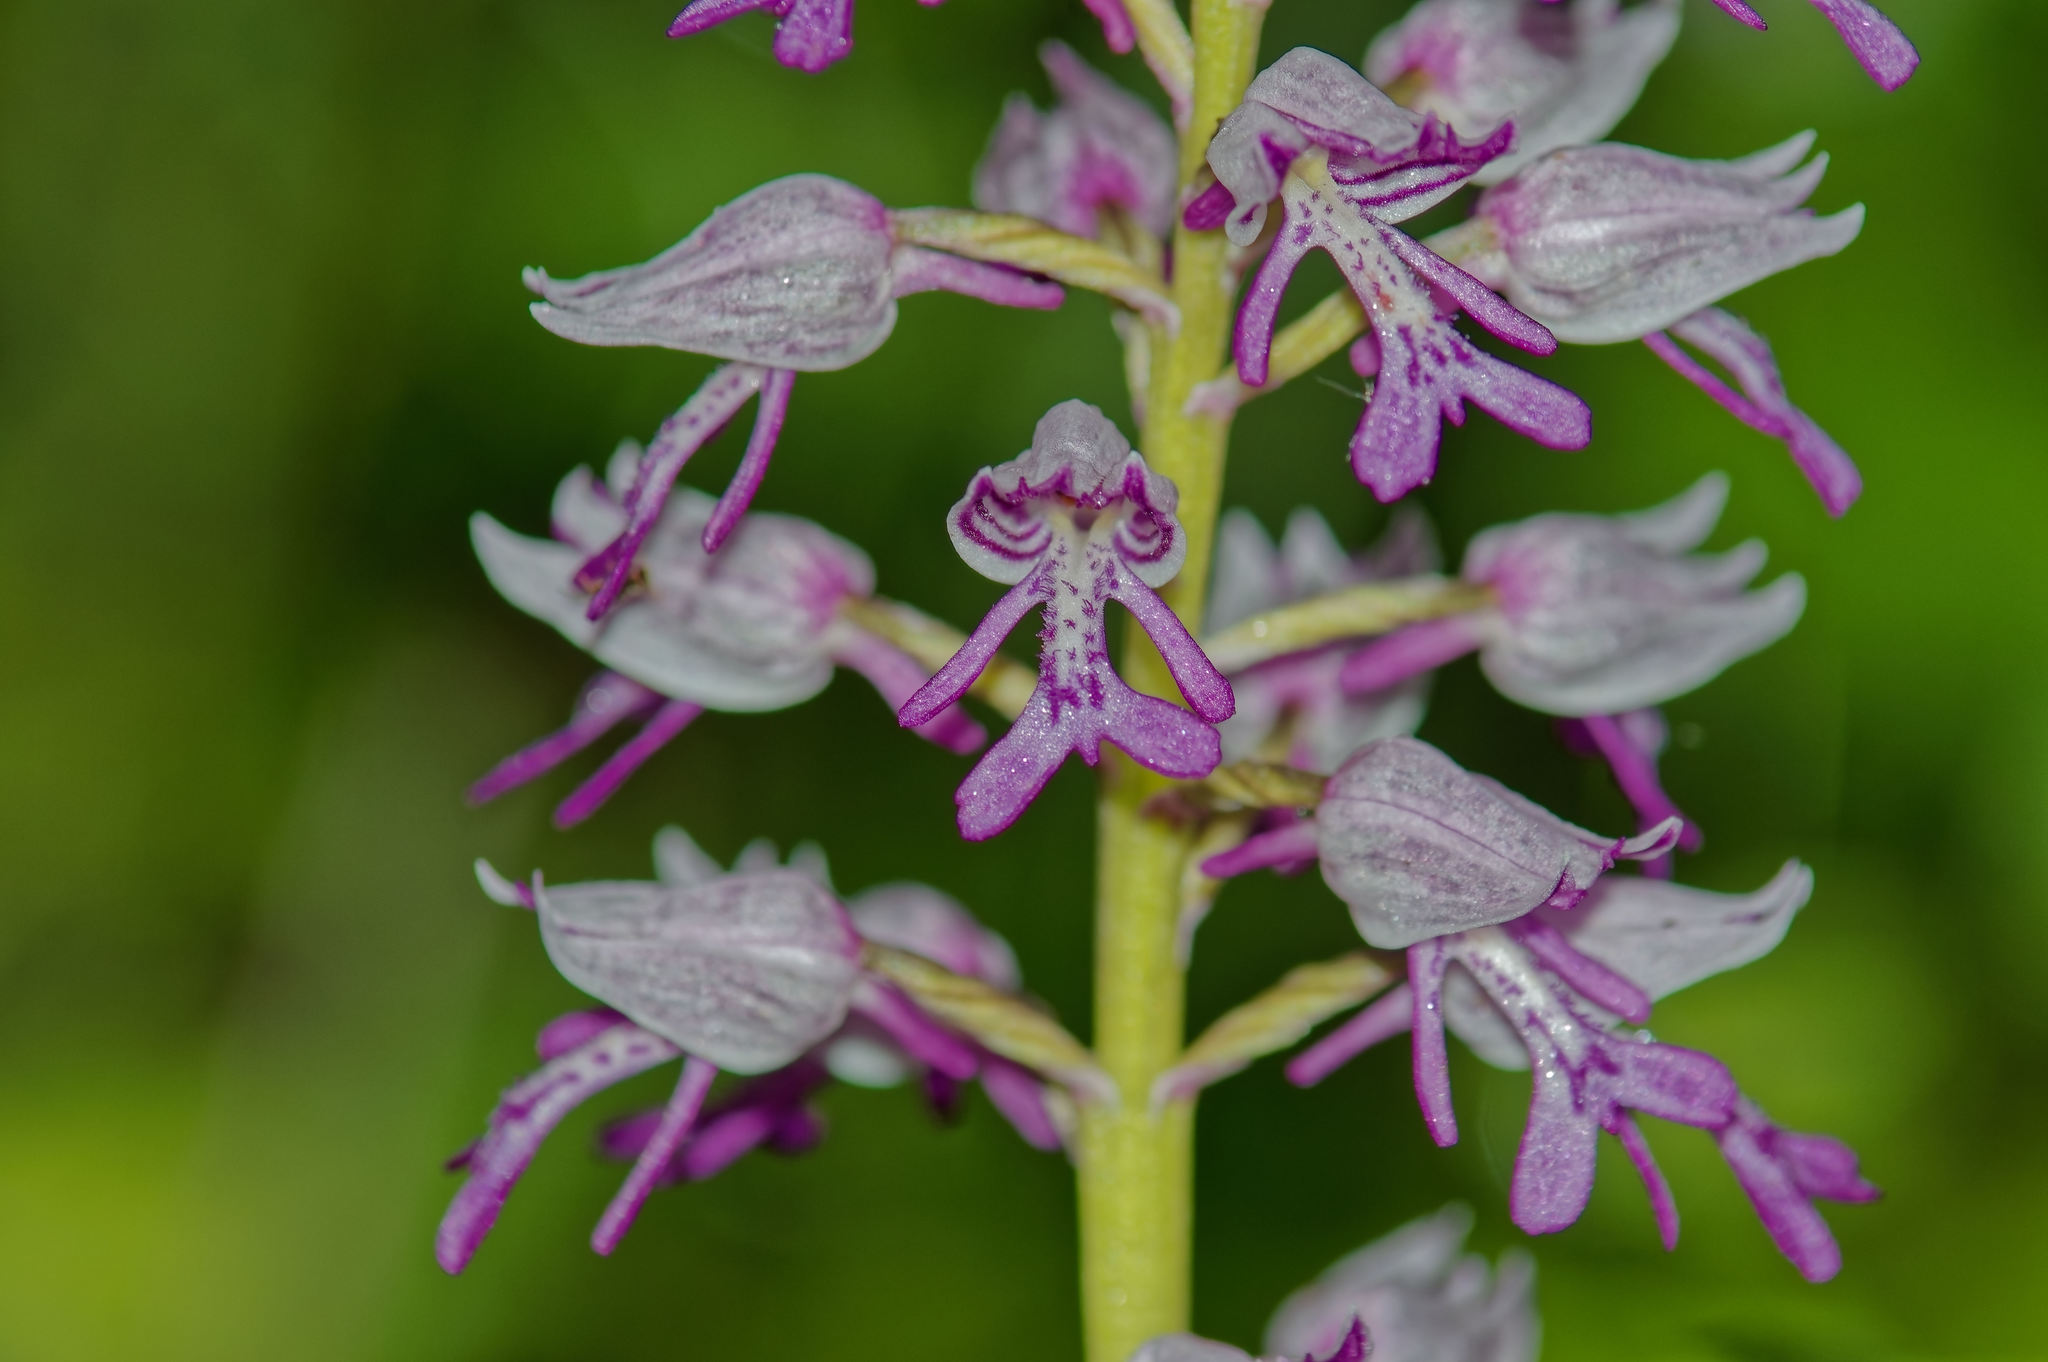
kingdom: Plantae
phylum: Tracheophyta
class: Liliopsida
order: Asparagales
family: Orchidaceae
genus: Orchis
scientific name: Orchis militaris
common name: Military orchid
